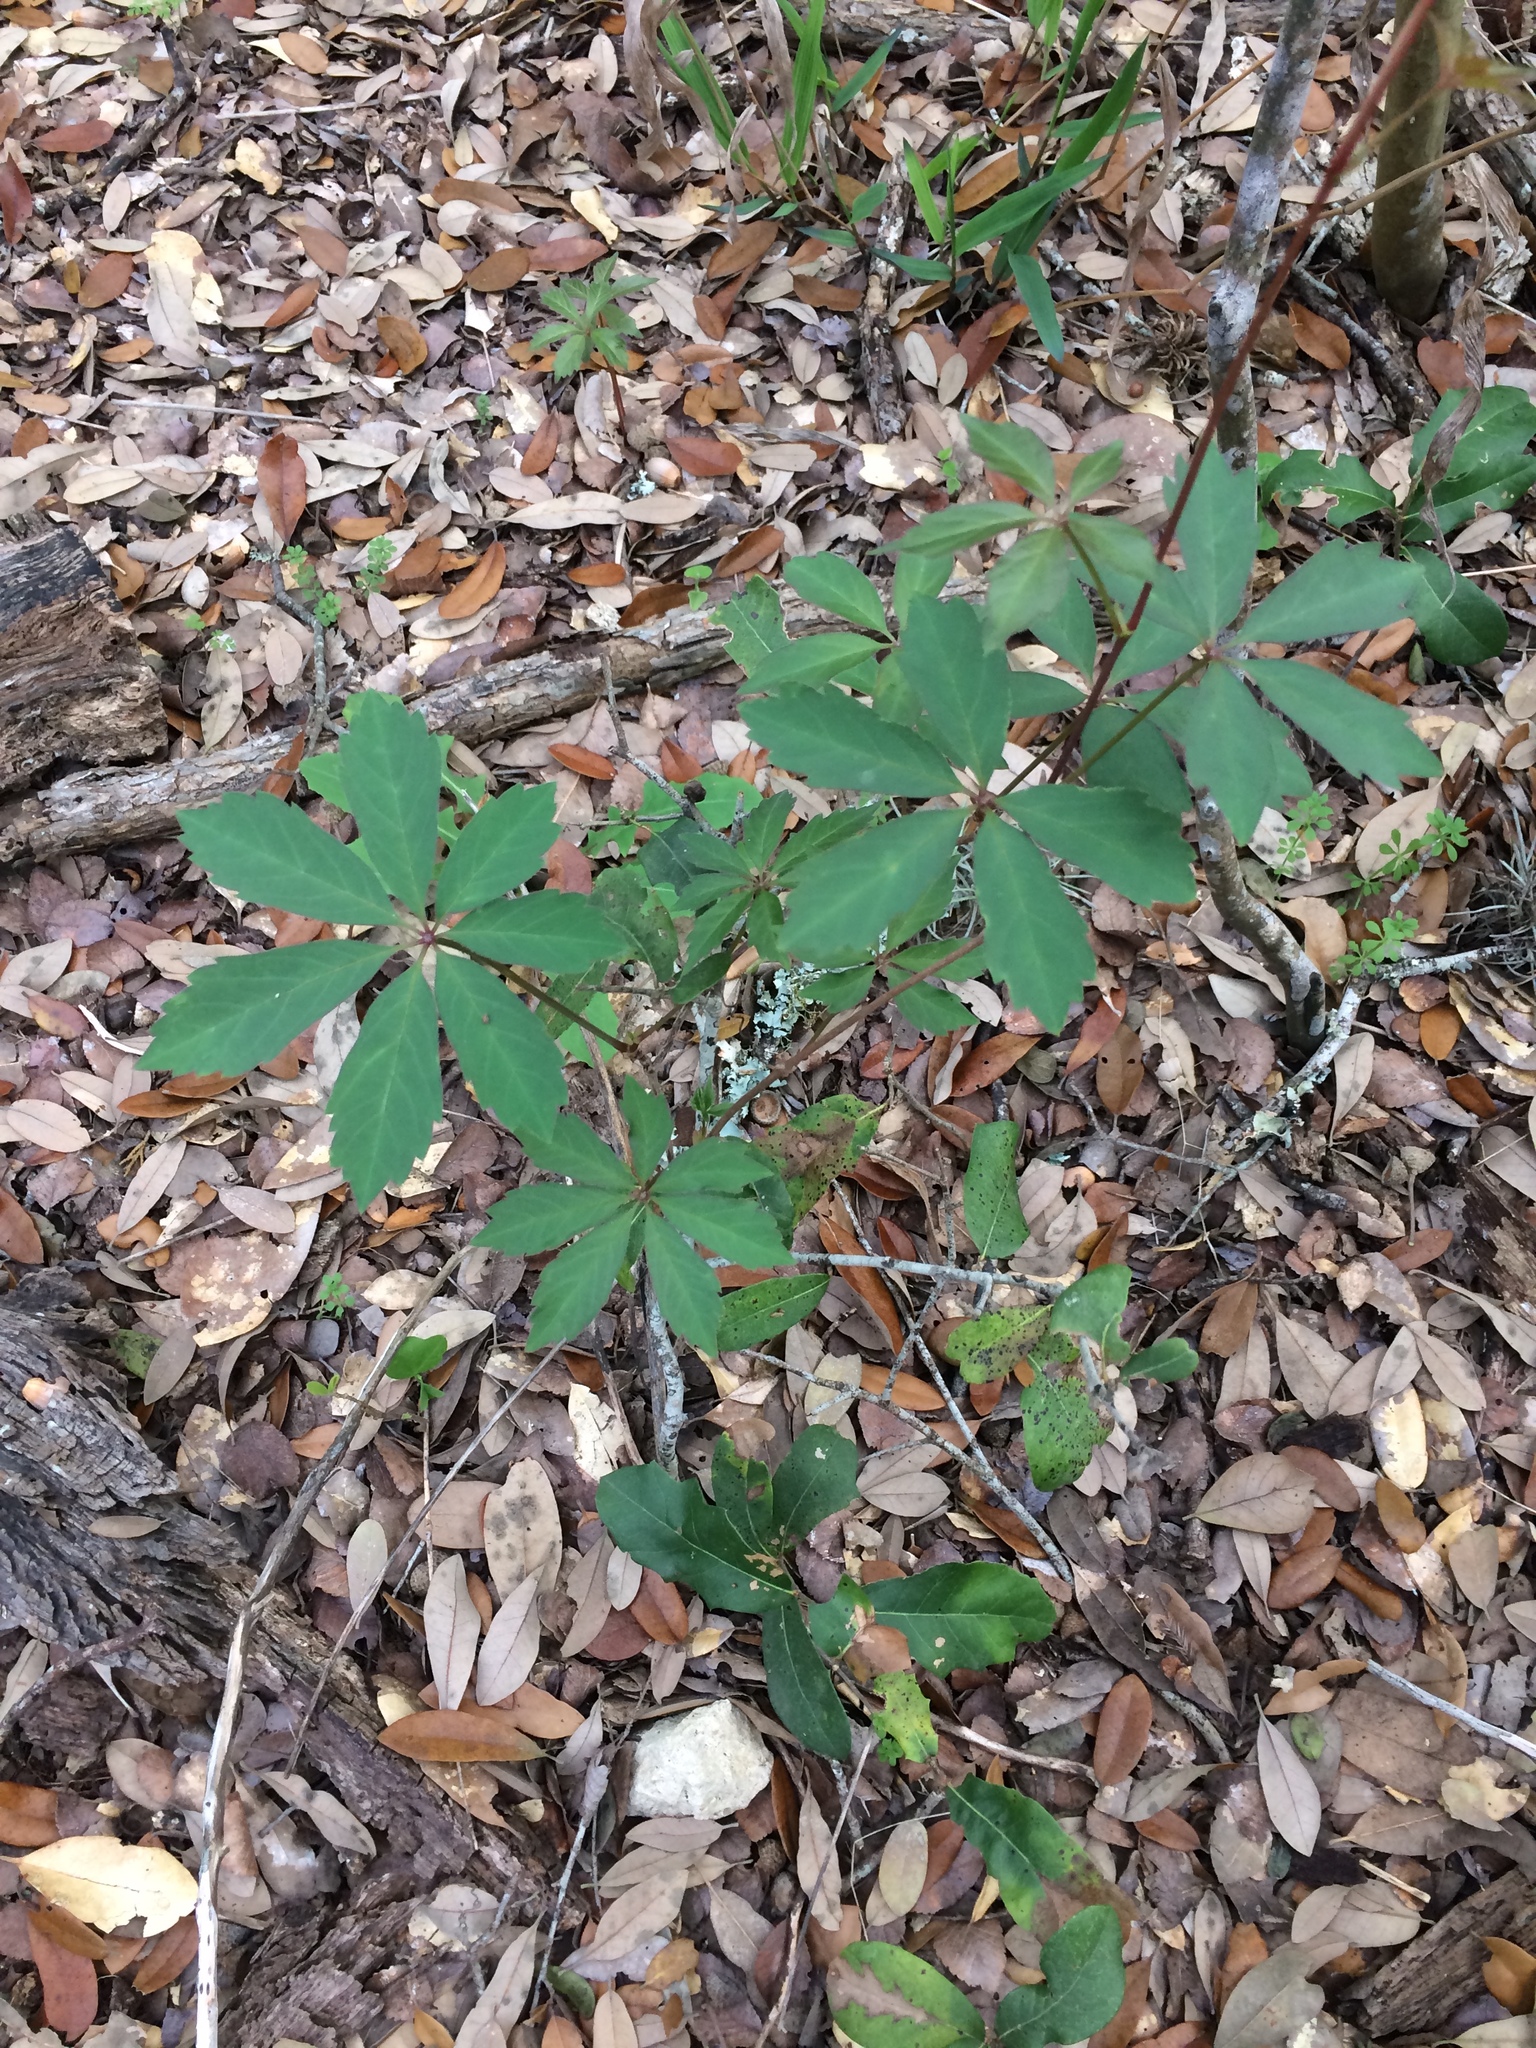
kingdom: Plantae
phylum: Tracheophyta
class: Magnoliopsida
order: Vitales
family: Vitaceae
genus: Parthenocissus
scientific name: Parthenocissus heptaphylla
